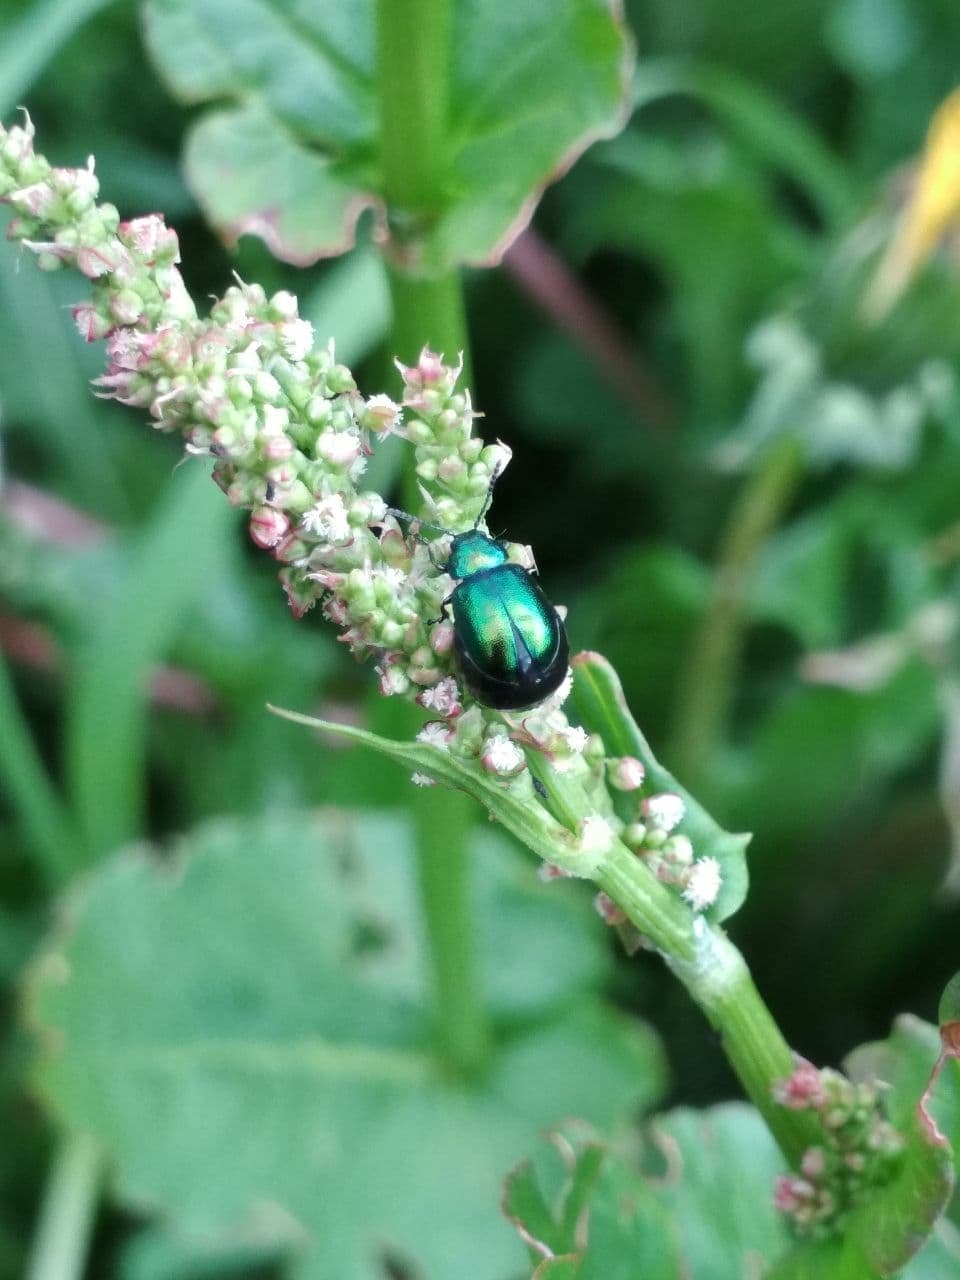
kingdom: Animalia
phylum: Arthropoda
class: Insecta
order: Coleoptera
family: Chrysomelidae
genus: Gastrophysa
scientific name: Gastrophysa viridula
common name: Green dock beetle
